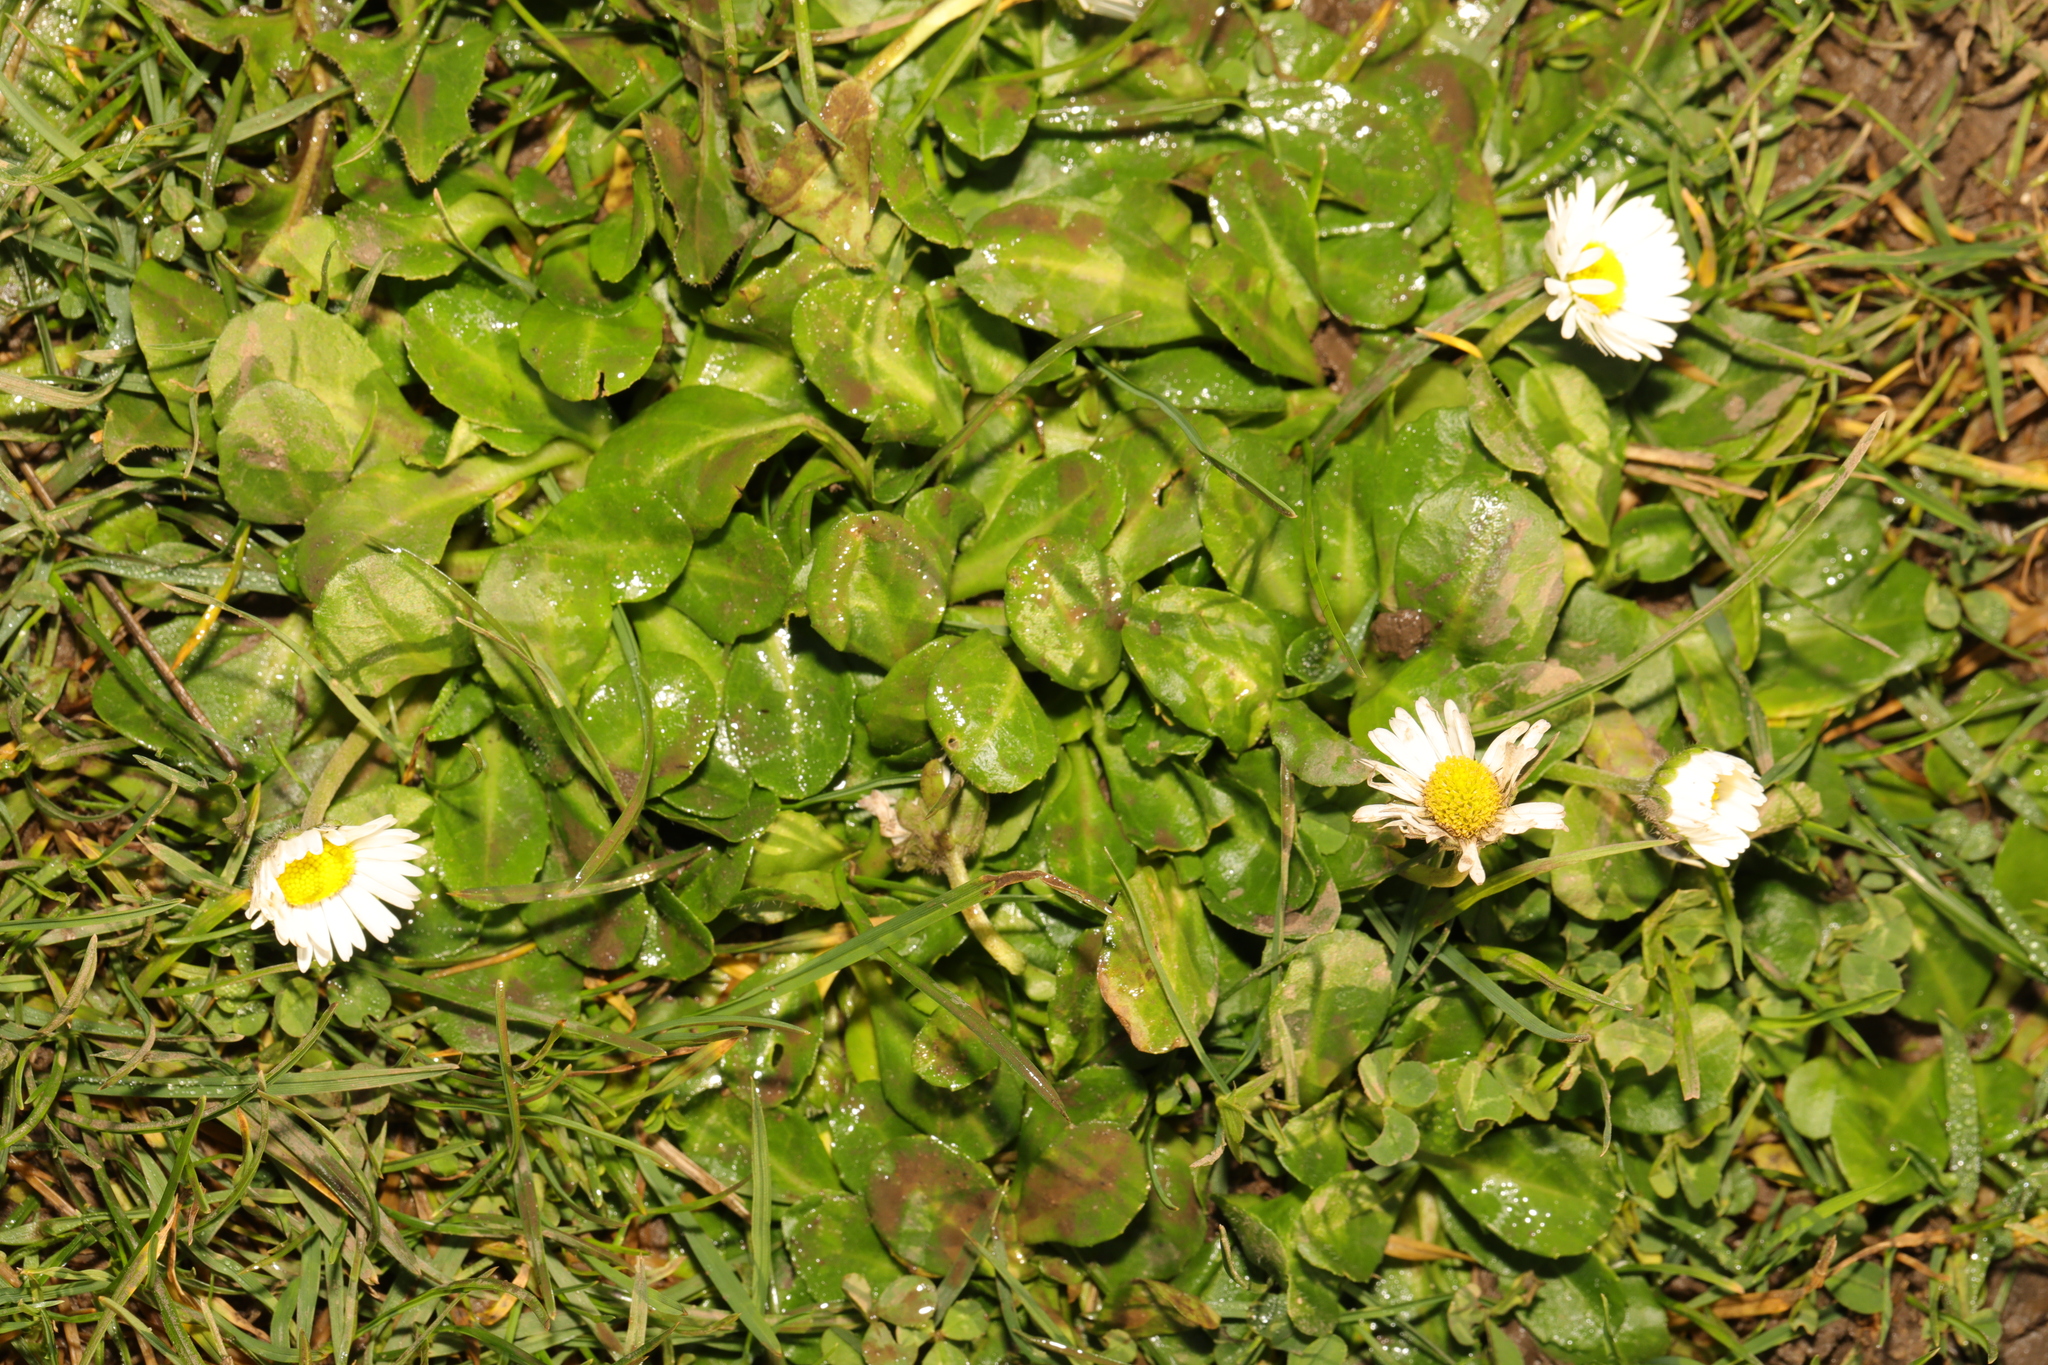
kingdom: Plantae
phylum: Tracheophyta
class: Magnoliopsida
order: Asterales
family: Asteraceae
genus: Bellis
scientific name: Bellis perennis
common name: Lawndaisy
